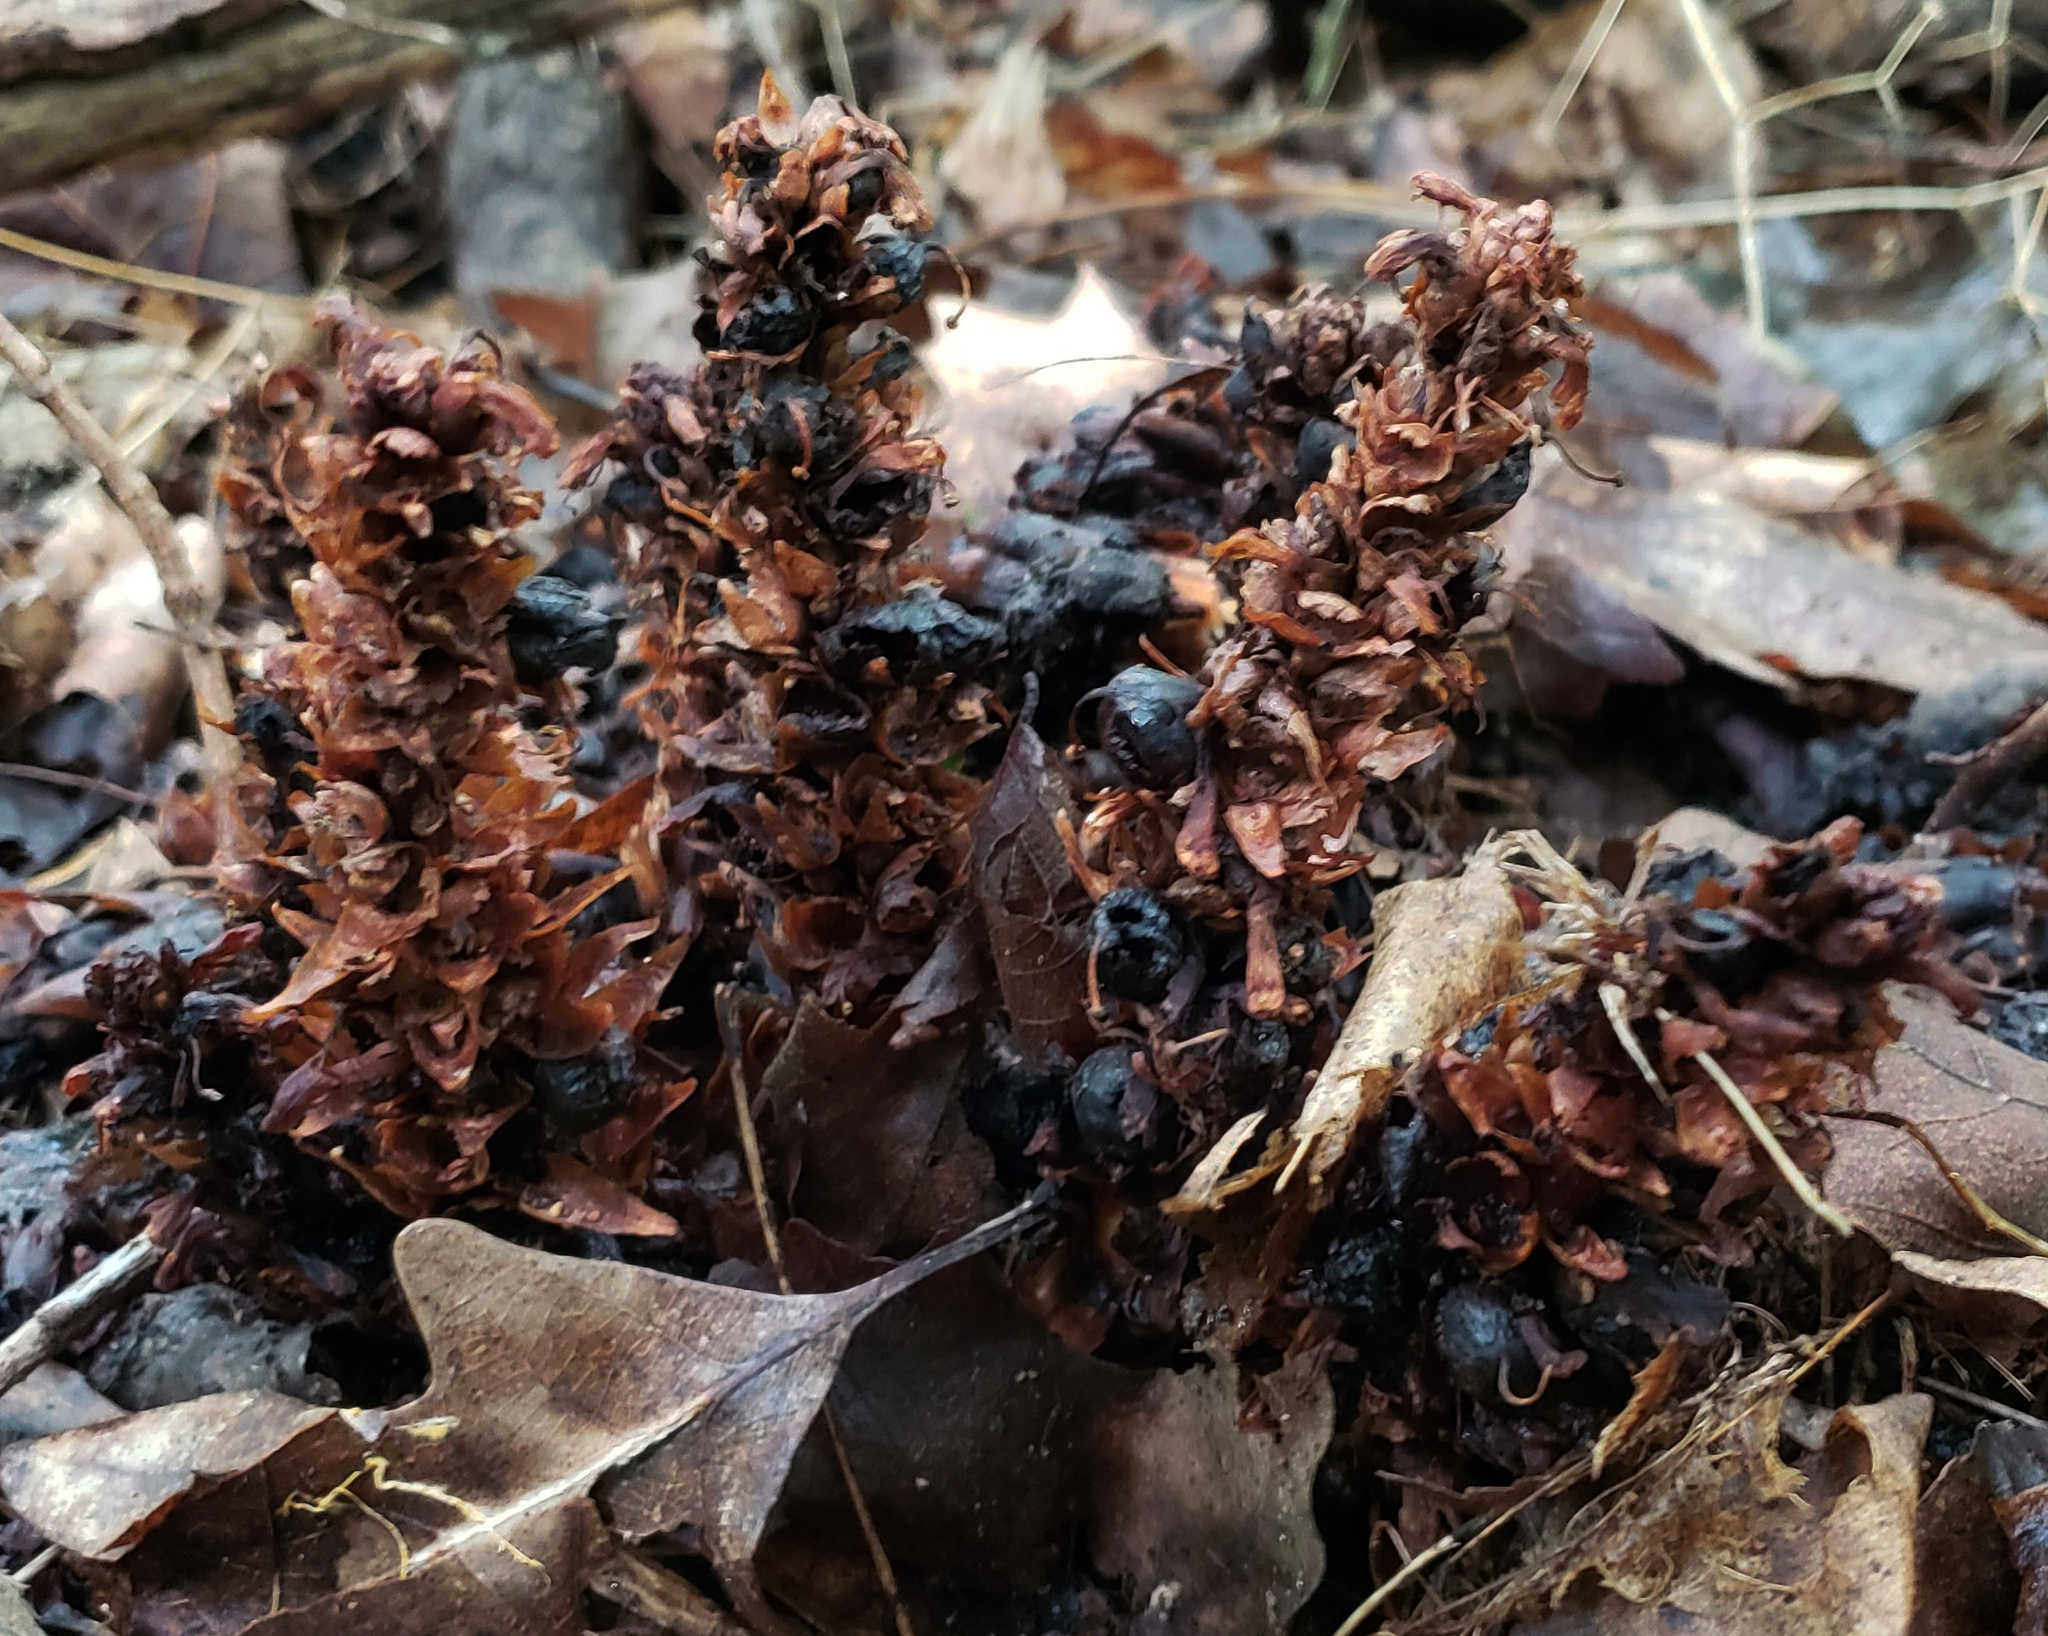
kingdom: Plantae
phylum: Tracheophyta
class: Magnoliopsida
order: Lamiales
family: Orobanchaceae
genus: Conopholis
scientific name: Conopholis americana
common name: American cancer-root
